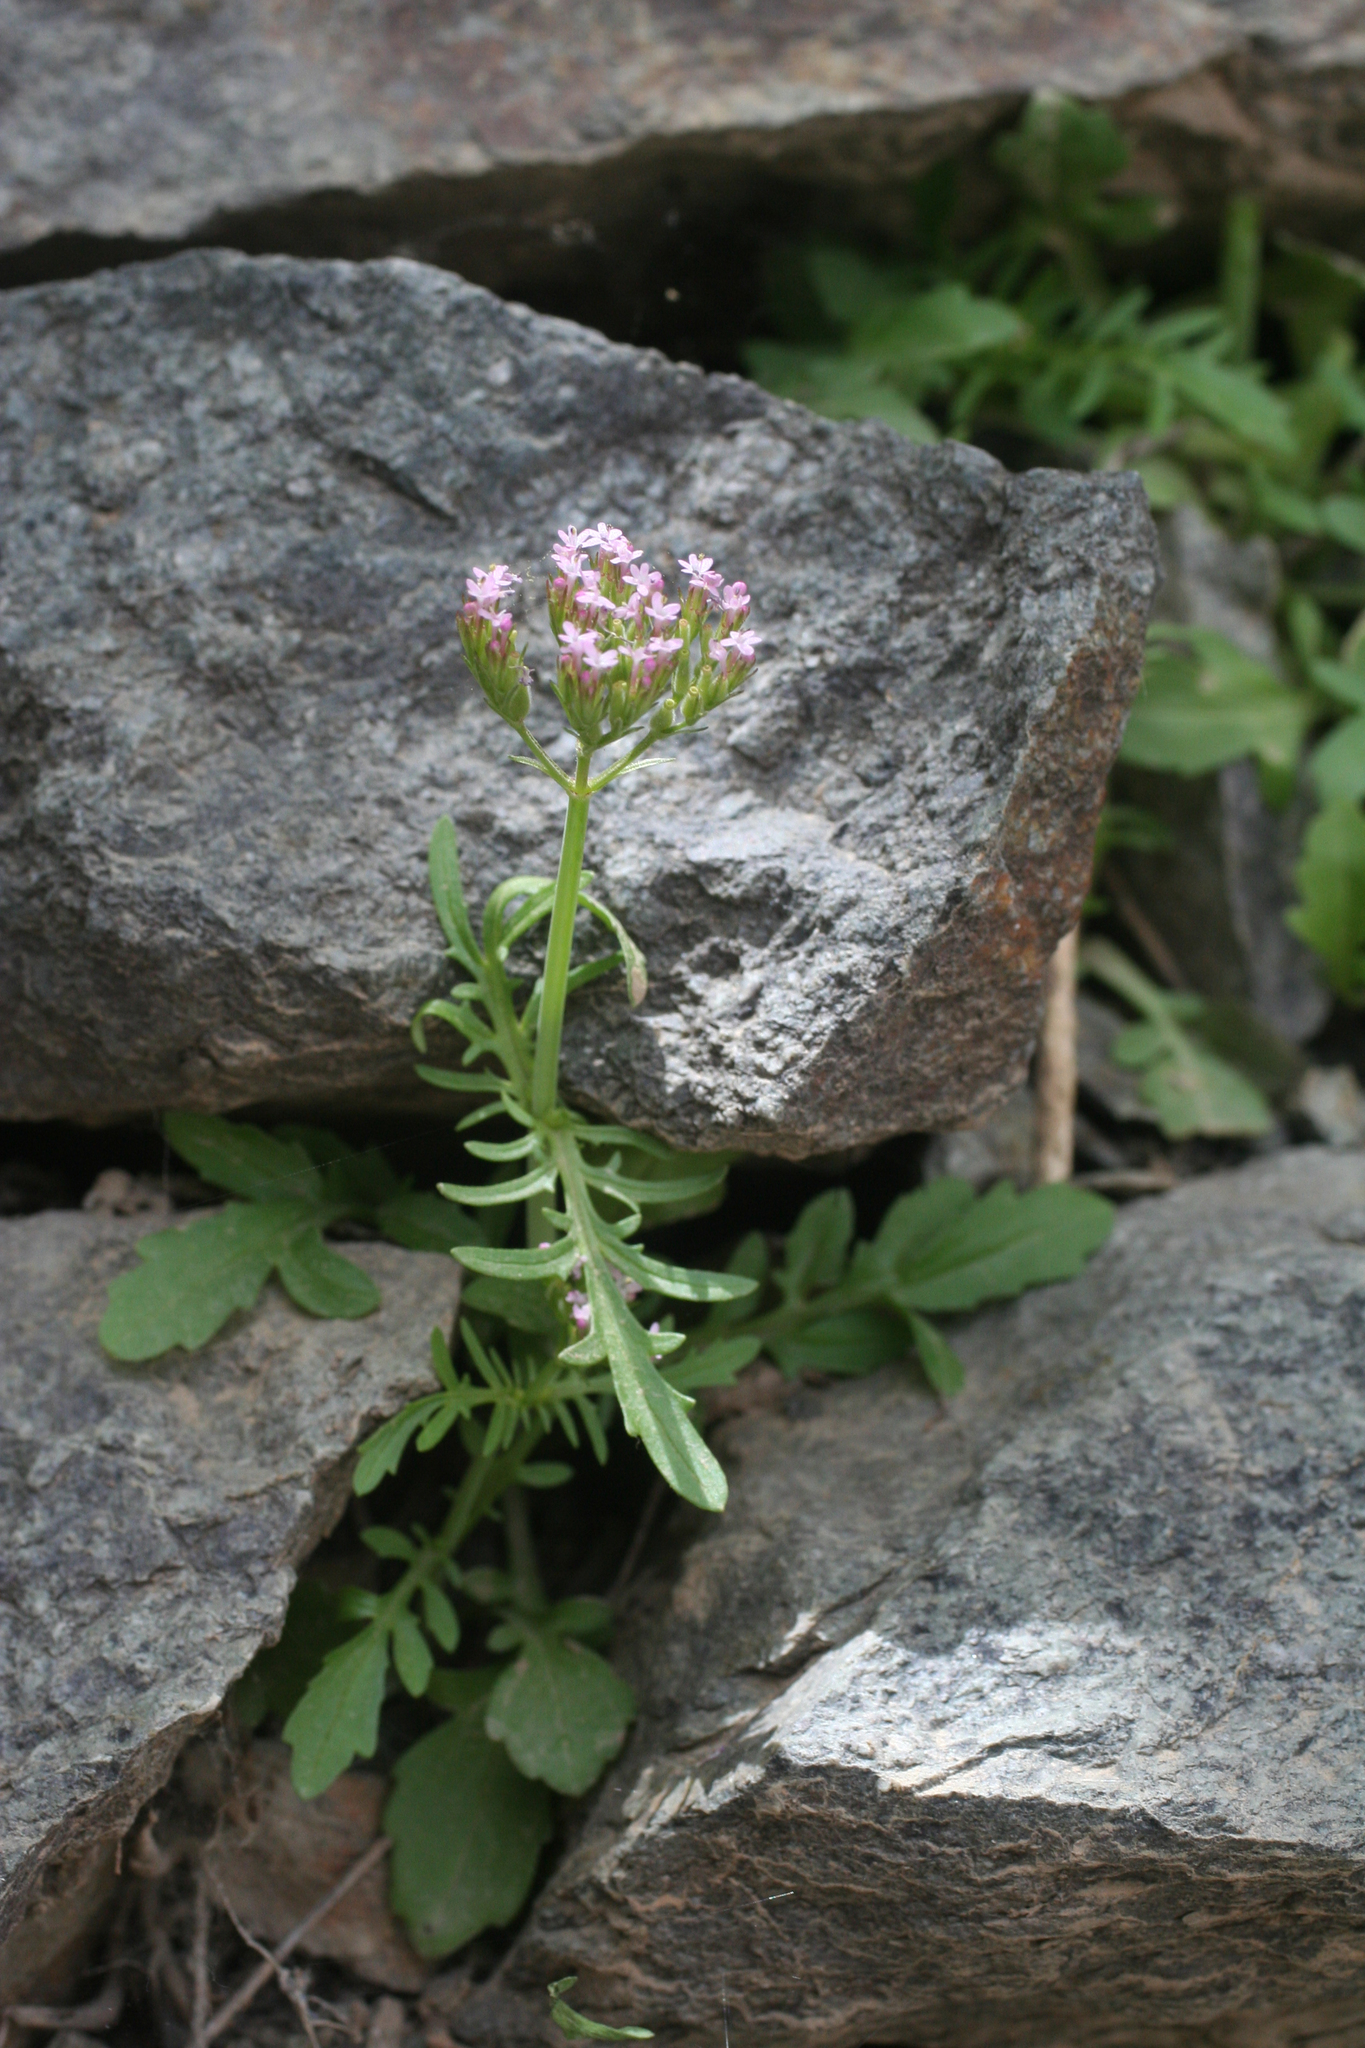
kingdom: Plantae
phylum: Tracheophyta
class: Magnoliopsida
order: Dipsacales
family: Caprifoliaceae
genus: Centranthus
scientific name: Centranthus calcitrapae
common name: Annual valerian
